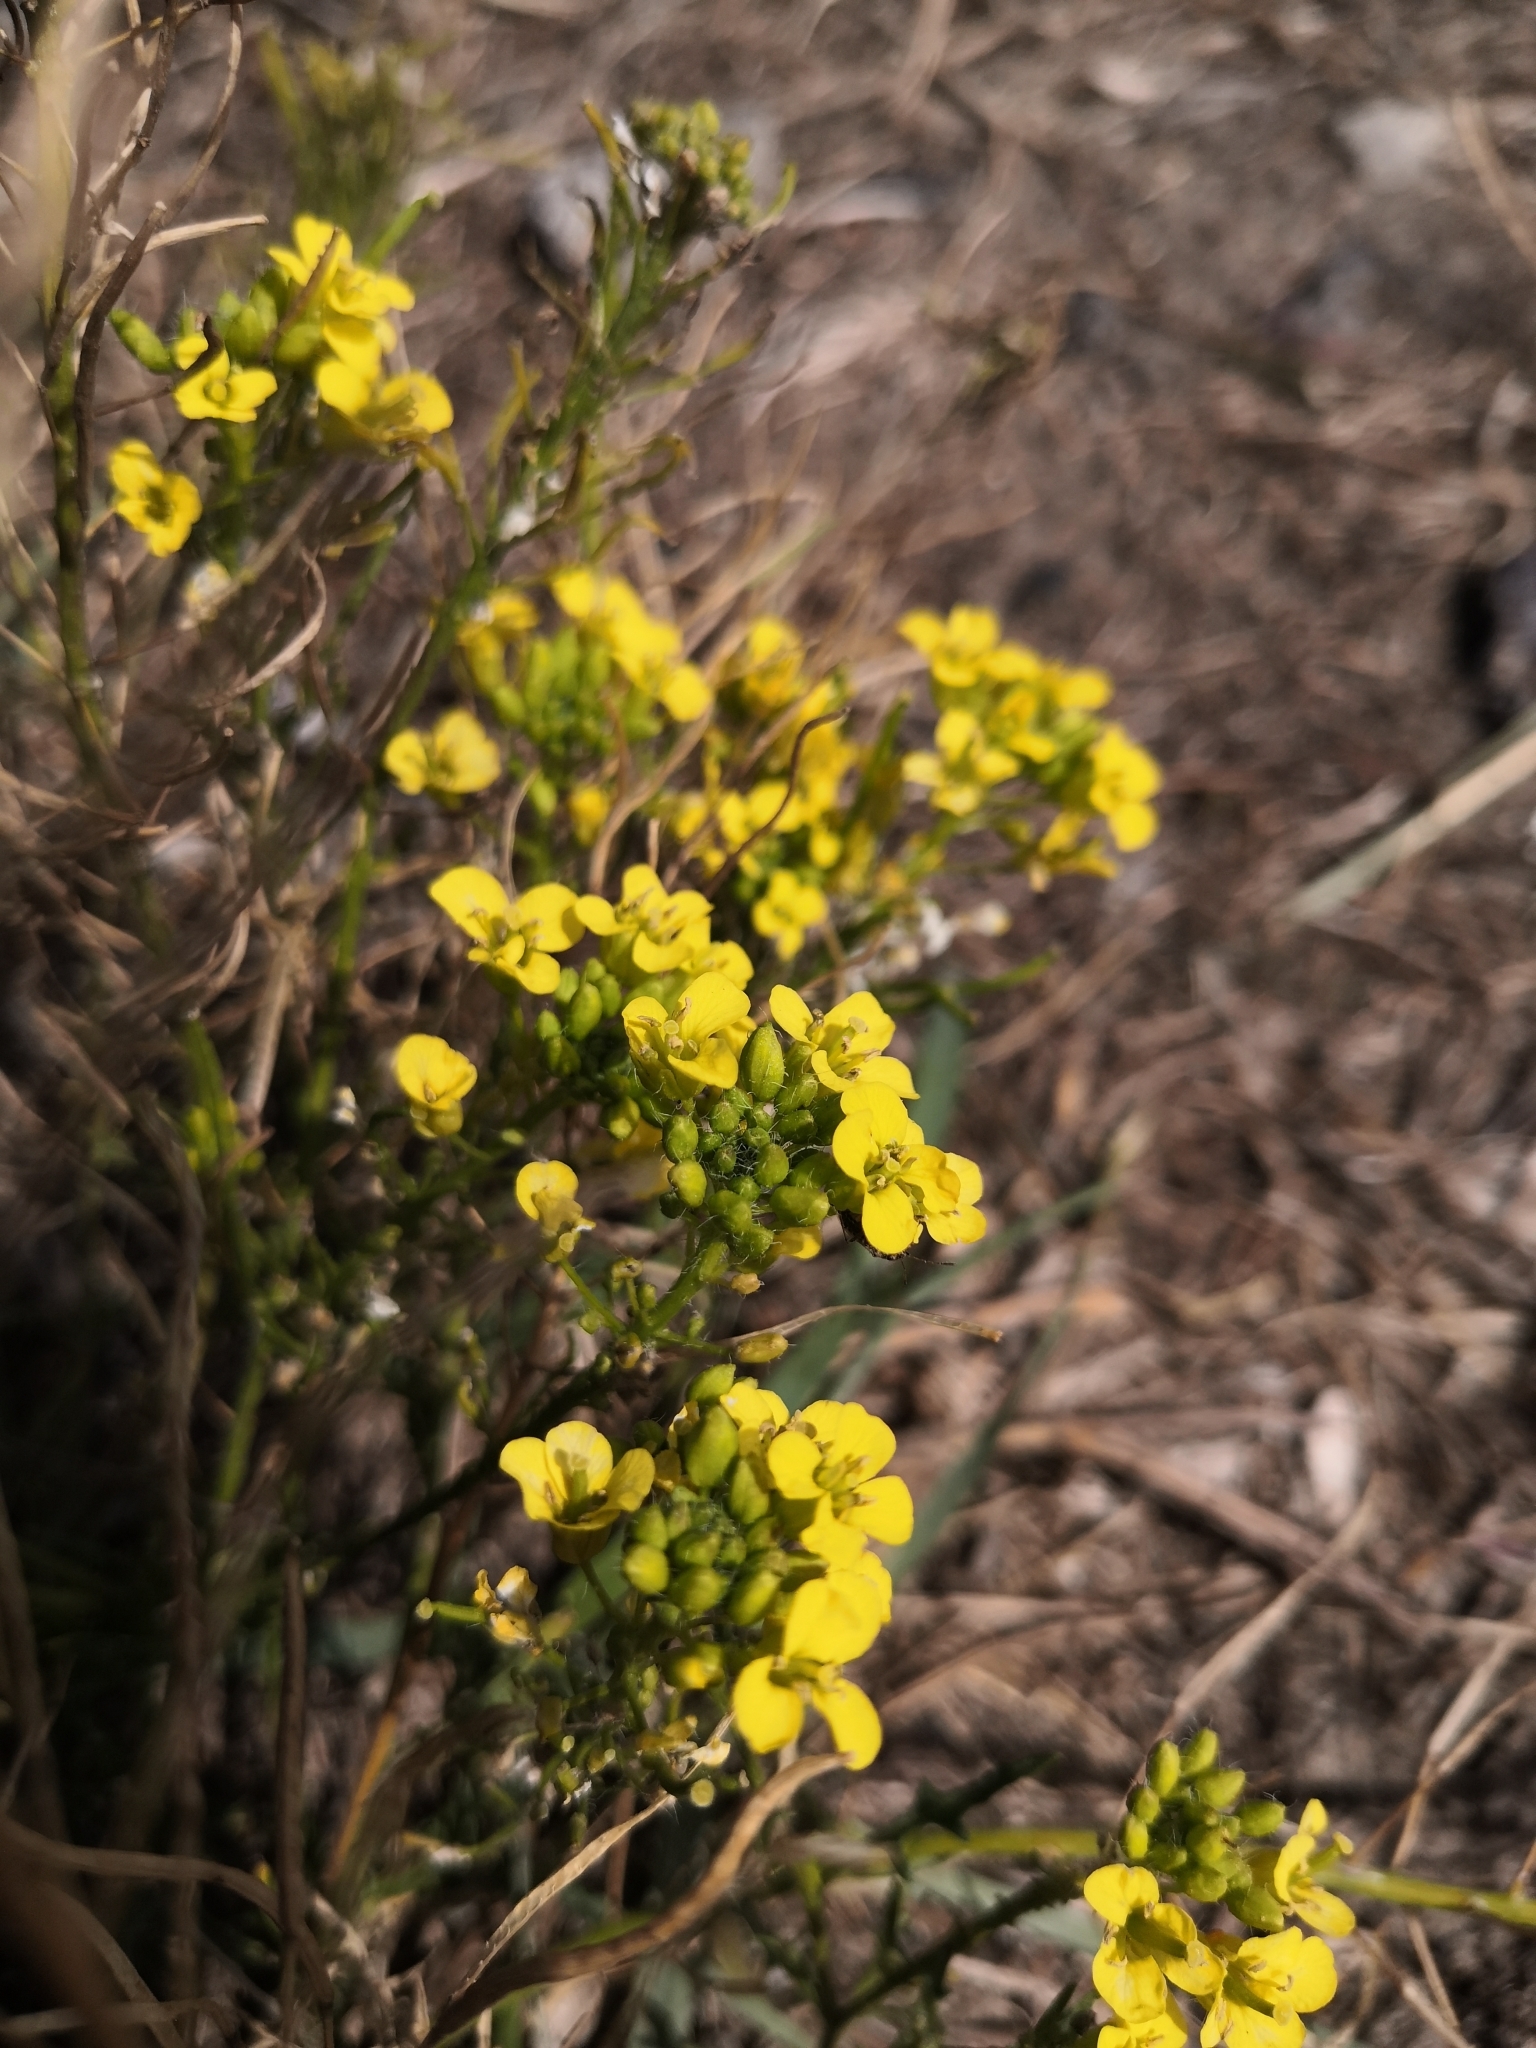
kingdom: Plantae
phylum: Tracheophyta
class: Magnoliopsida
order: Brassicales
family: Brassicaceae
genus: Sisymbrium
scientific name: Sisymbrium loeselii
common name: False london-rocket
